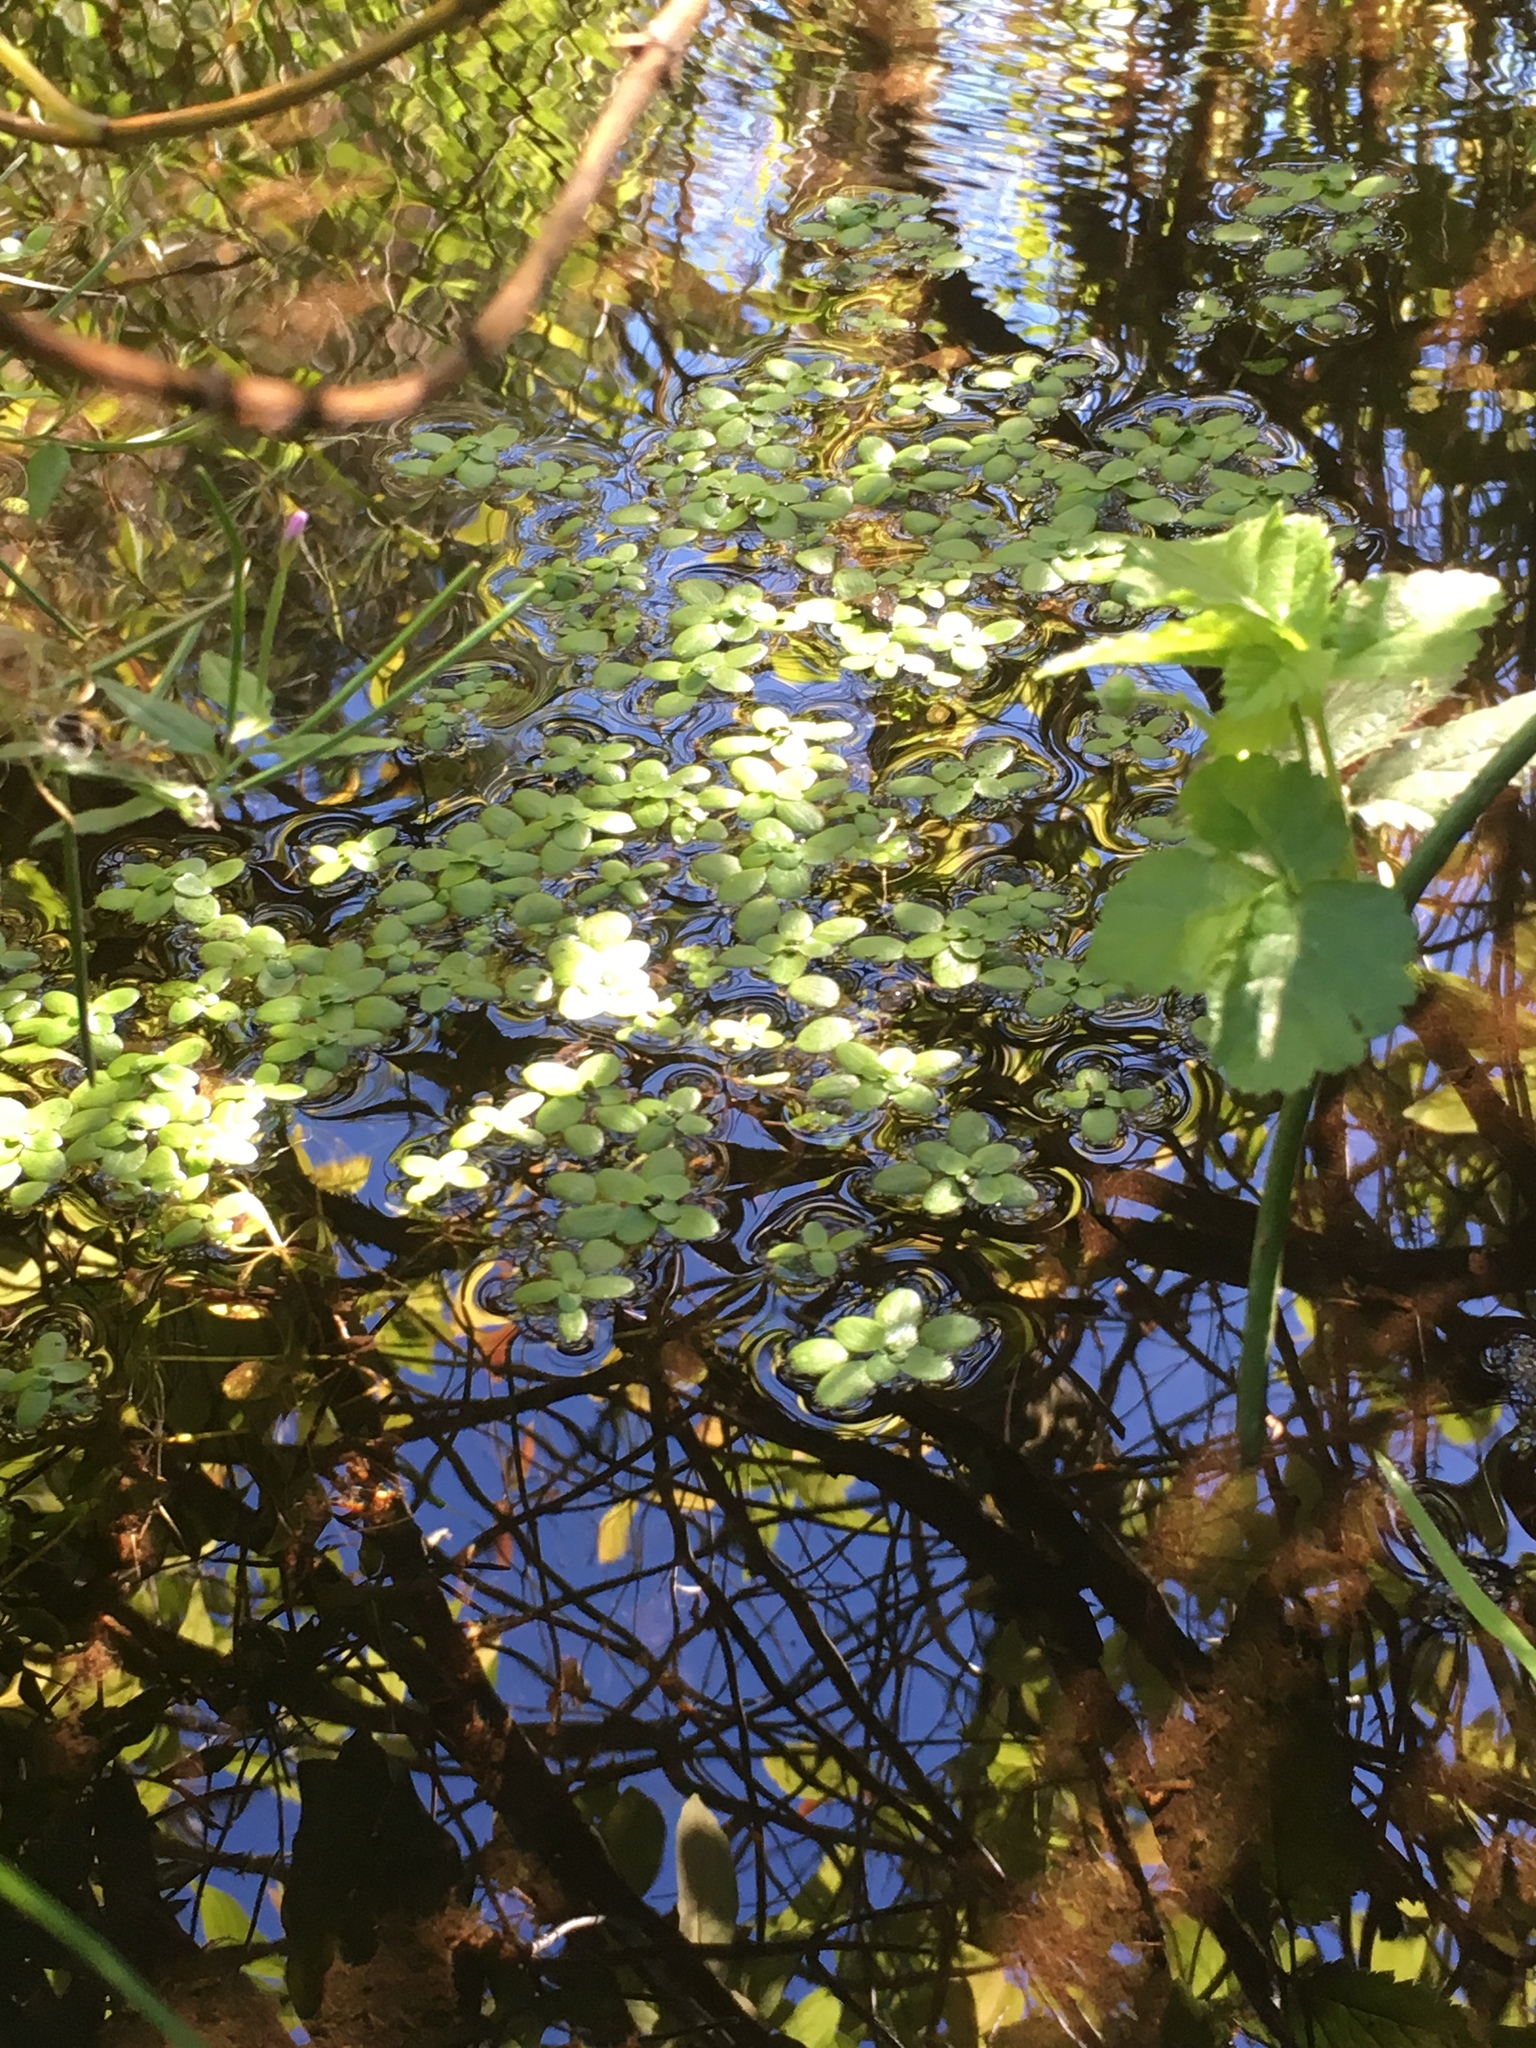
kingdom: Plantae
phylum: Tracheophyta
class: Magnoliopsida
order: Lamiales
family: Plantaginaceae
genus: Callitriche
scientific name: Callitriche stagnalis
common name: Common water-starwort
